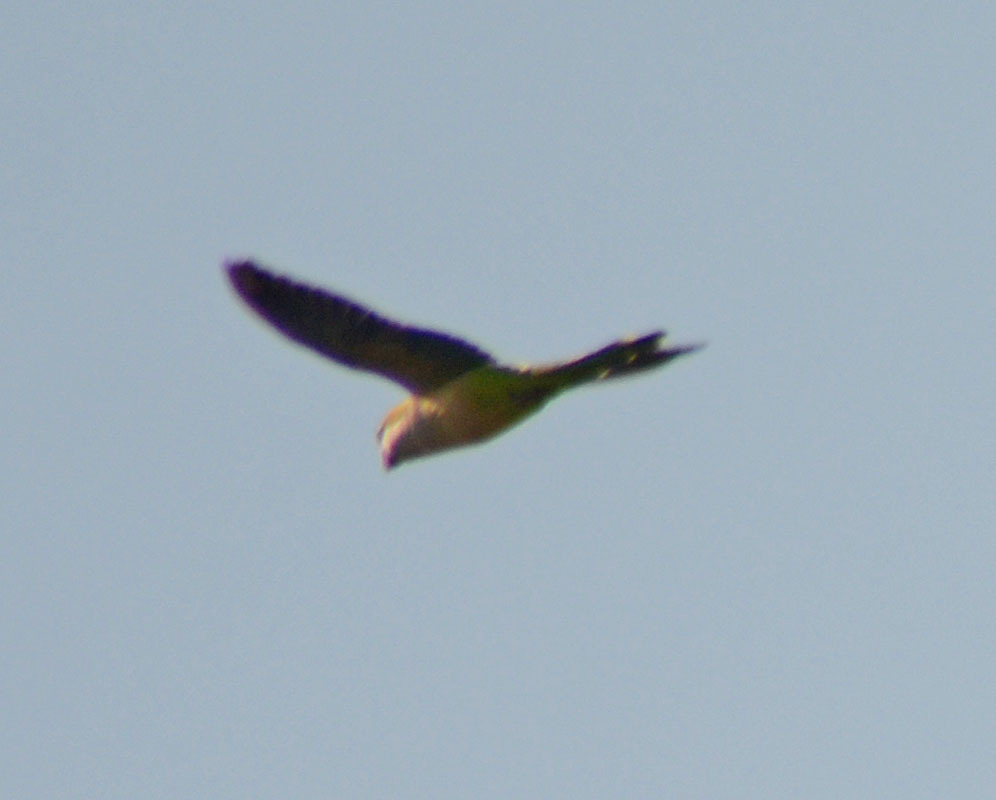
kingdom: Animalia
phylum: Chordata
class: Aves
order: Psittaciformes
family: Psittacidae
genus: Myiopsitta
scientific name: Myiopsitta monachus
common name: Monk parakeet
